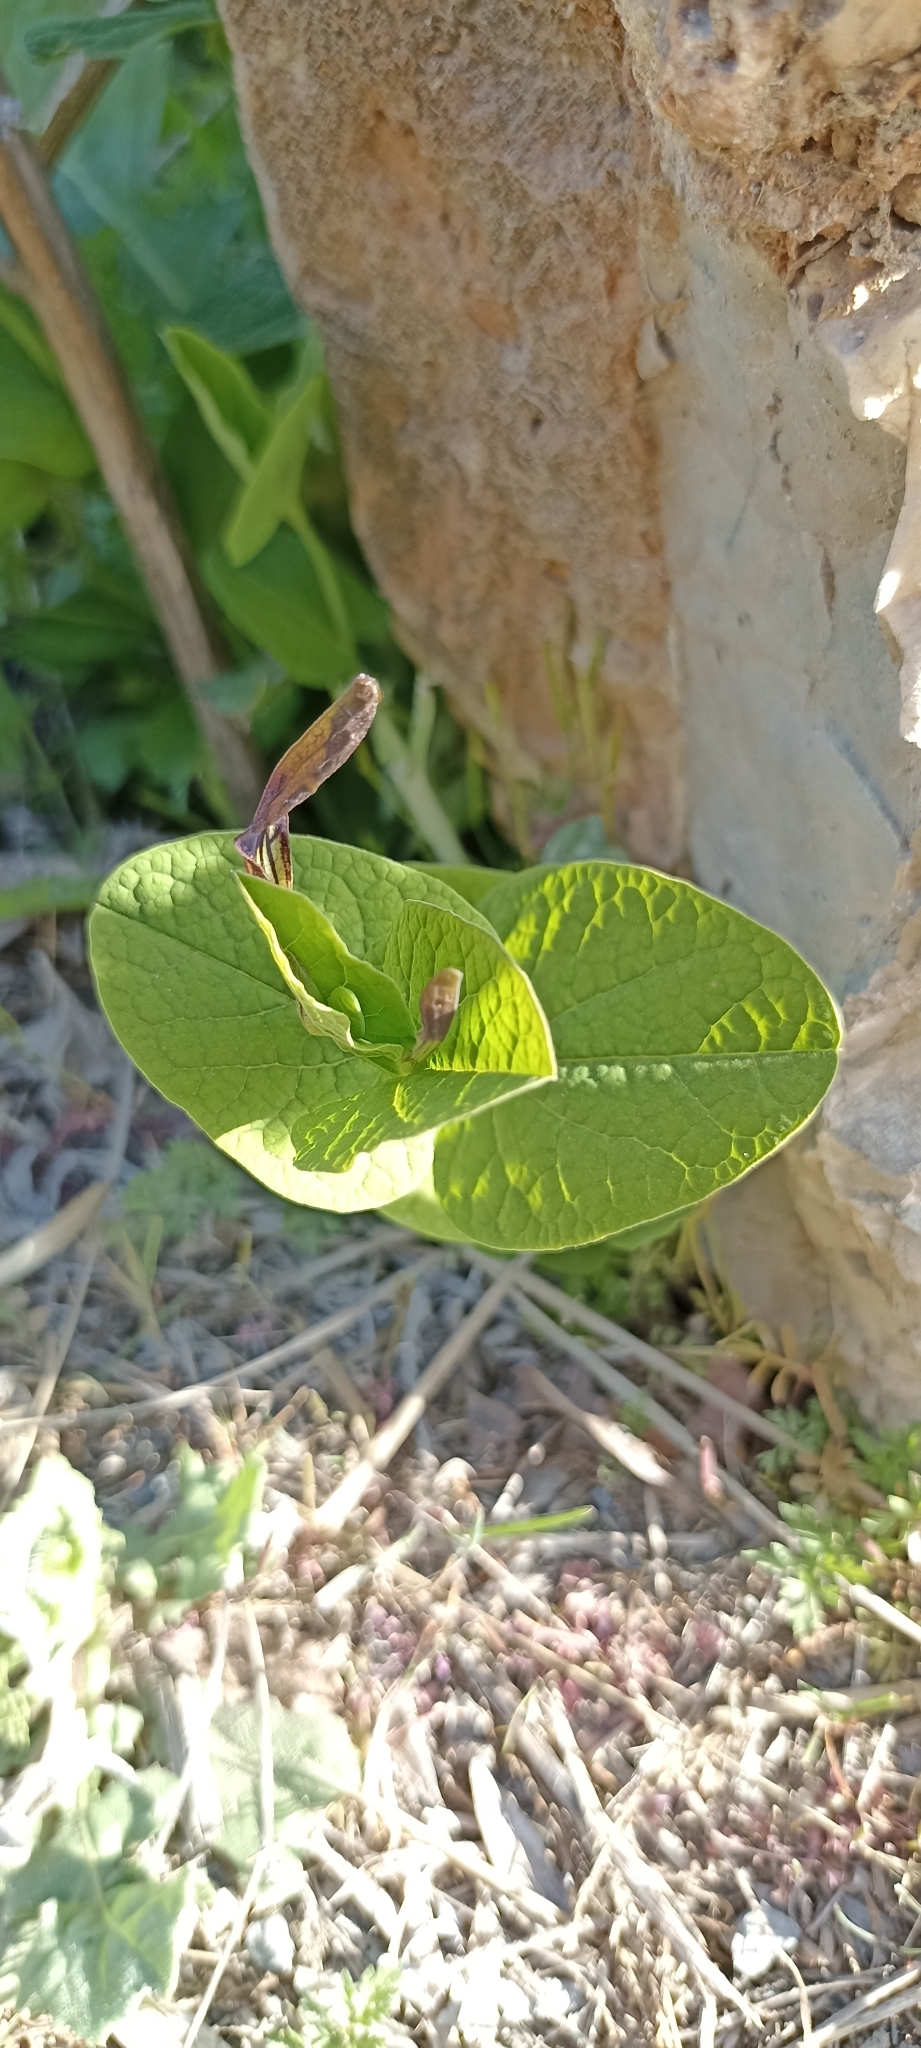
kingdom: Plantae
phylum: Tracheophyta
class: Magnoliopsida
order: Piperales
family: Aristolochiaceae
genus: Aristolochia
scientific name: Aristolochia rotunda
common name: Smearwort
